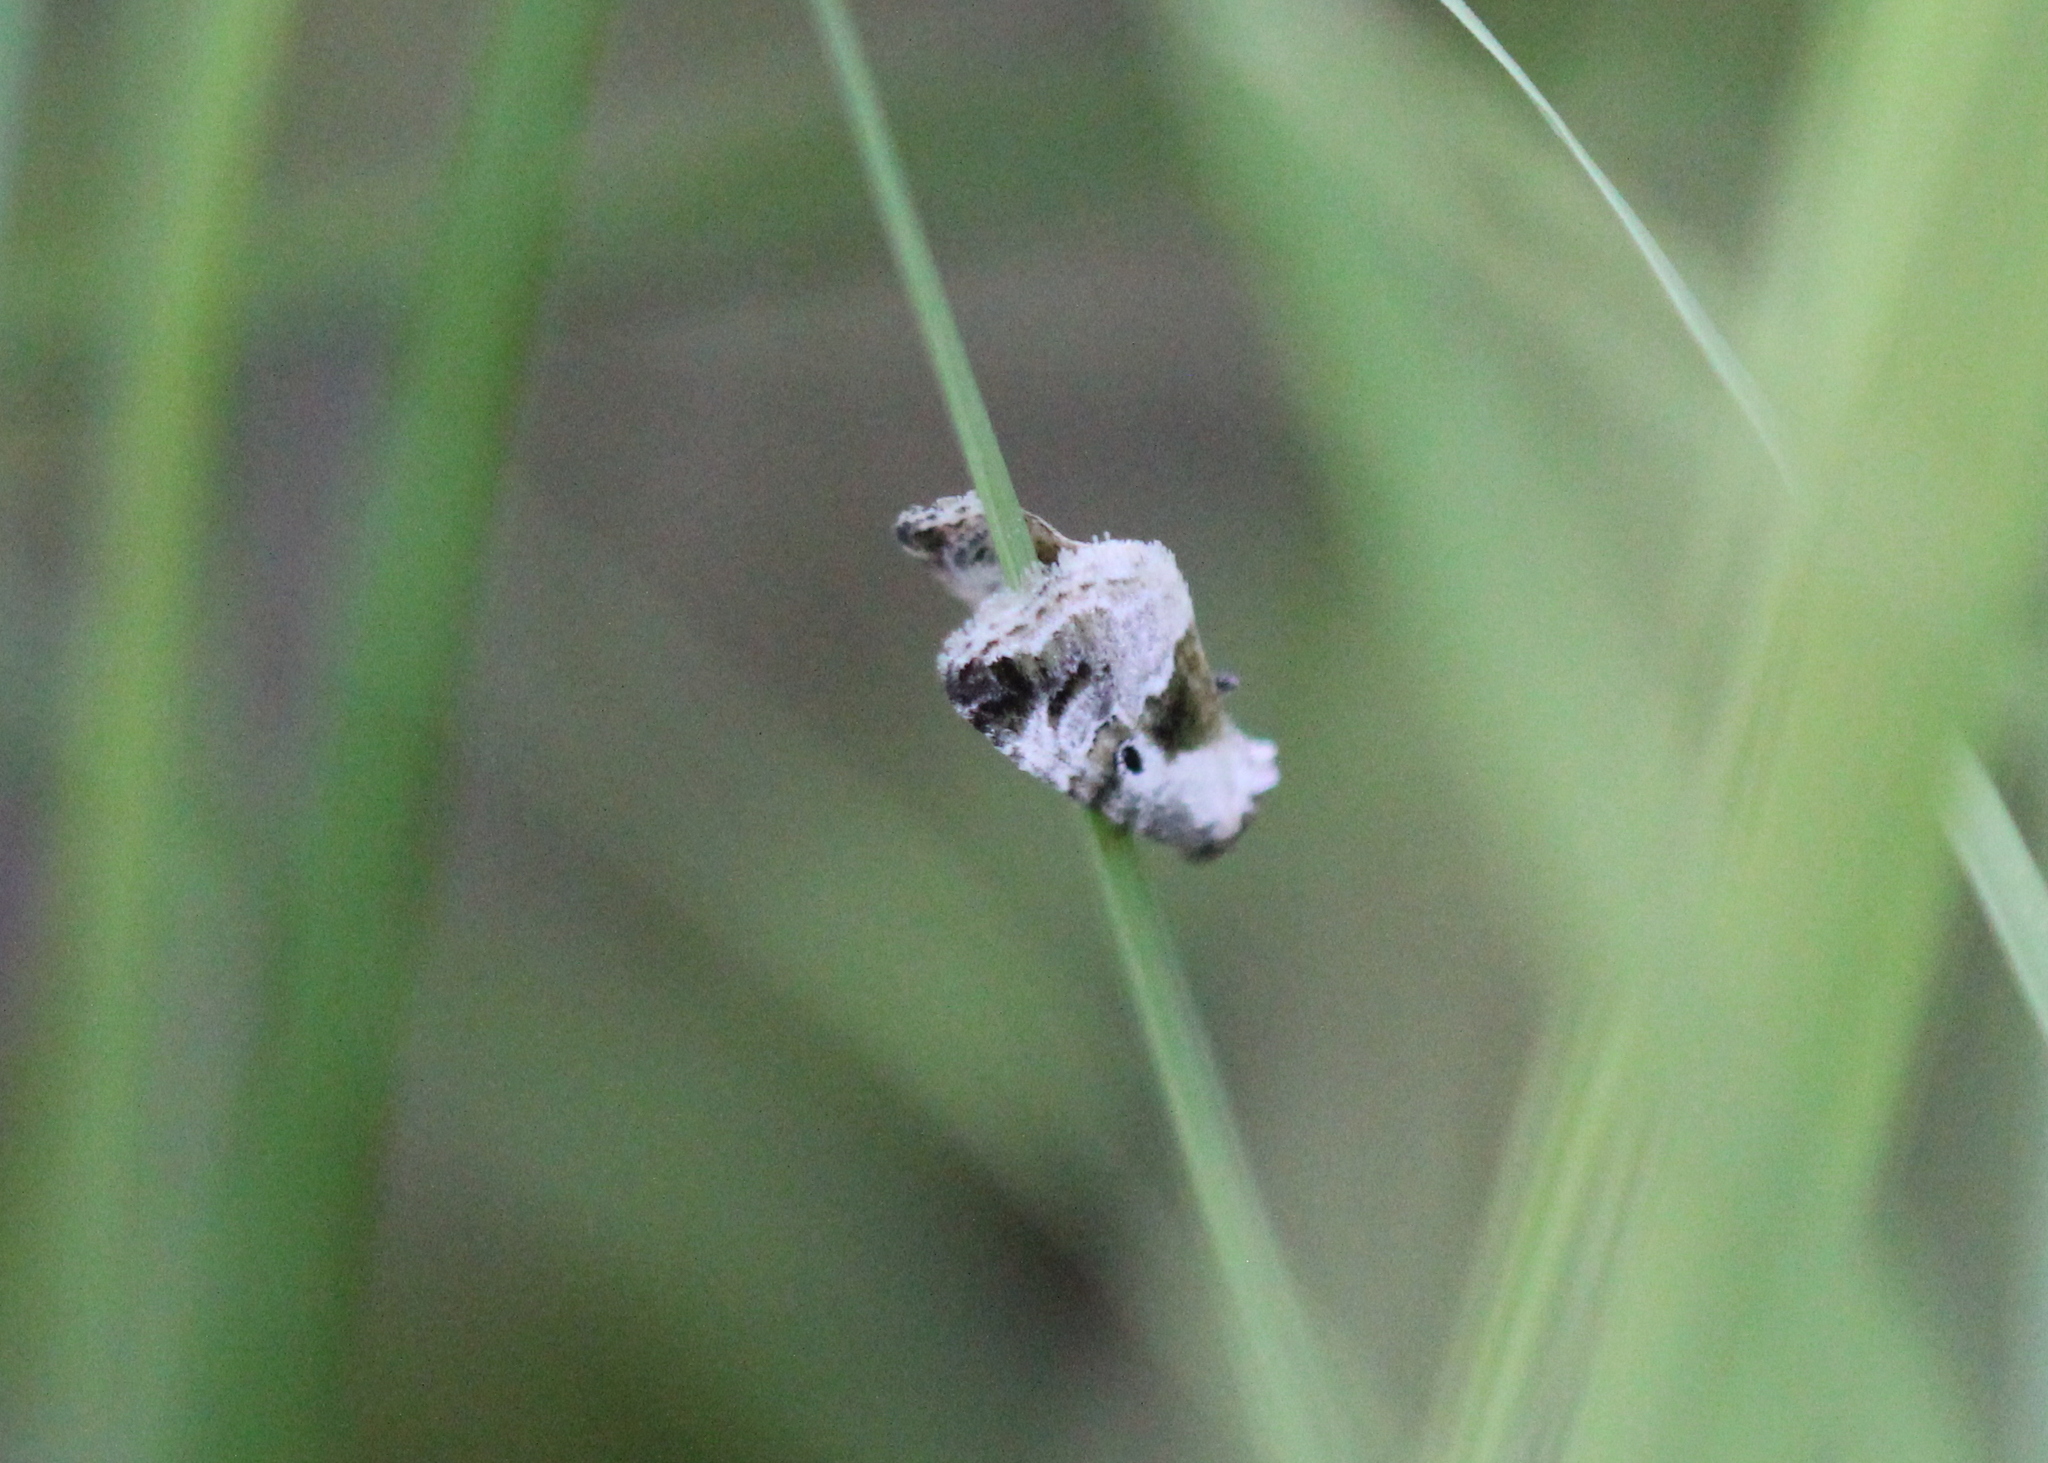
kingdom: Animalia
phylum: Arthropoda
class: Insecta
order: Lepidoptera
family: Noctuidae
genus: Maliattha
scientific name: Maliattha synochitis
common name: Black-dotted glyph
